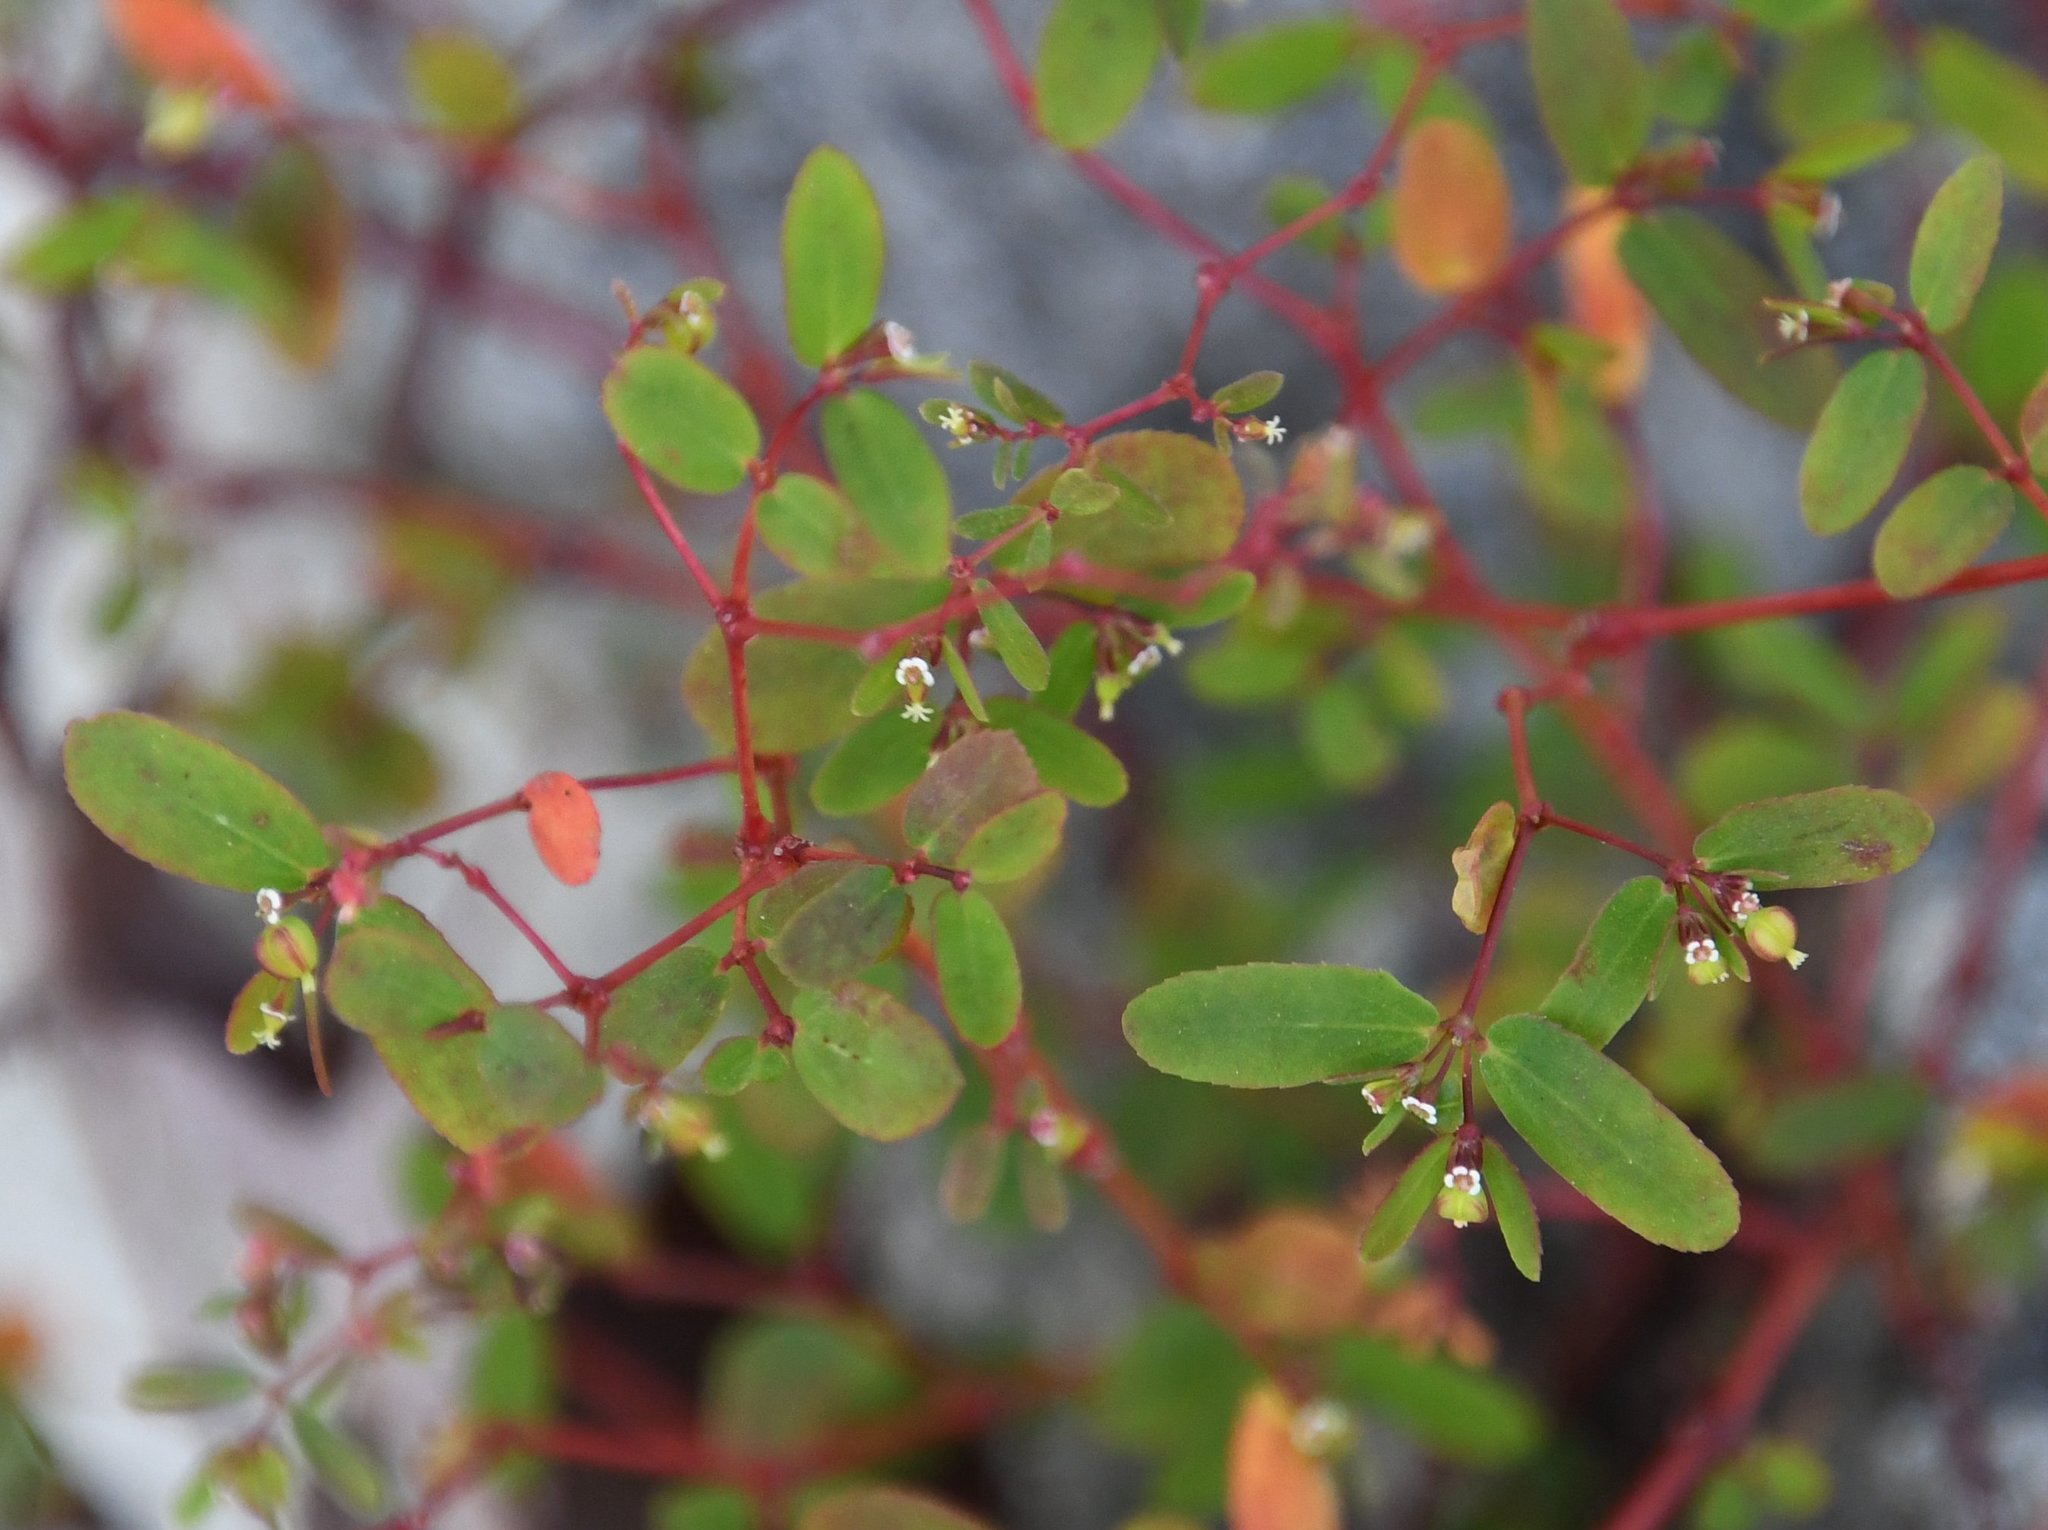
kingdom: Plantae
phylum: Tracheophyta
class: Magnoliopsida
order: Malpighiales
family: Euphorbiaceae
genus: Euphorbia
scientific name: Euphorbia hyssopifolia
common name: Hyssopleaf sandmat
